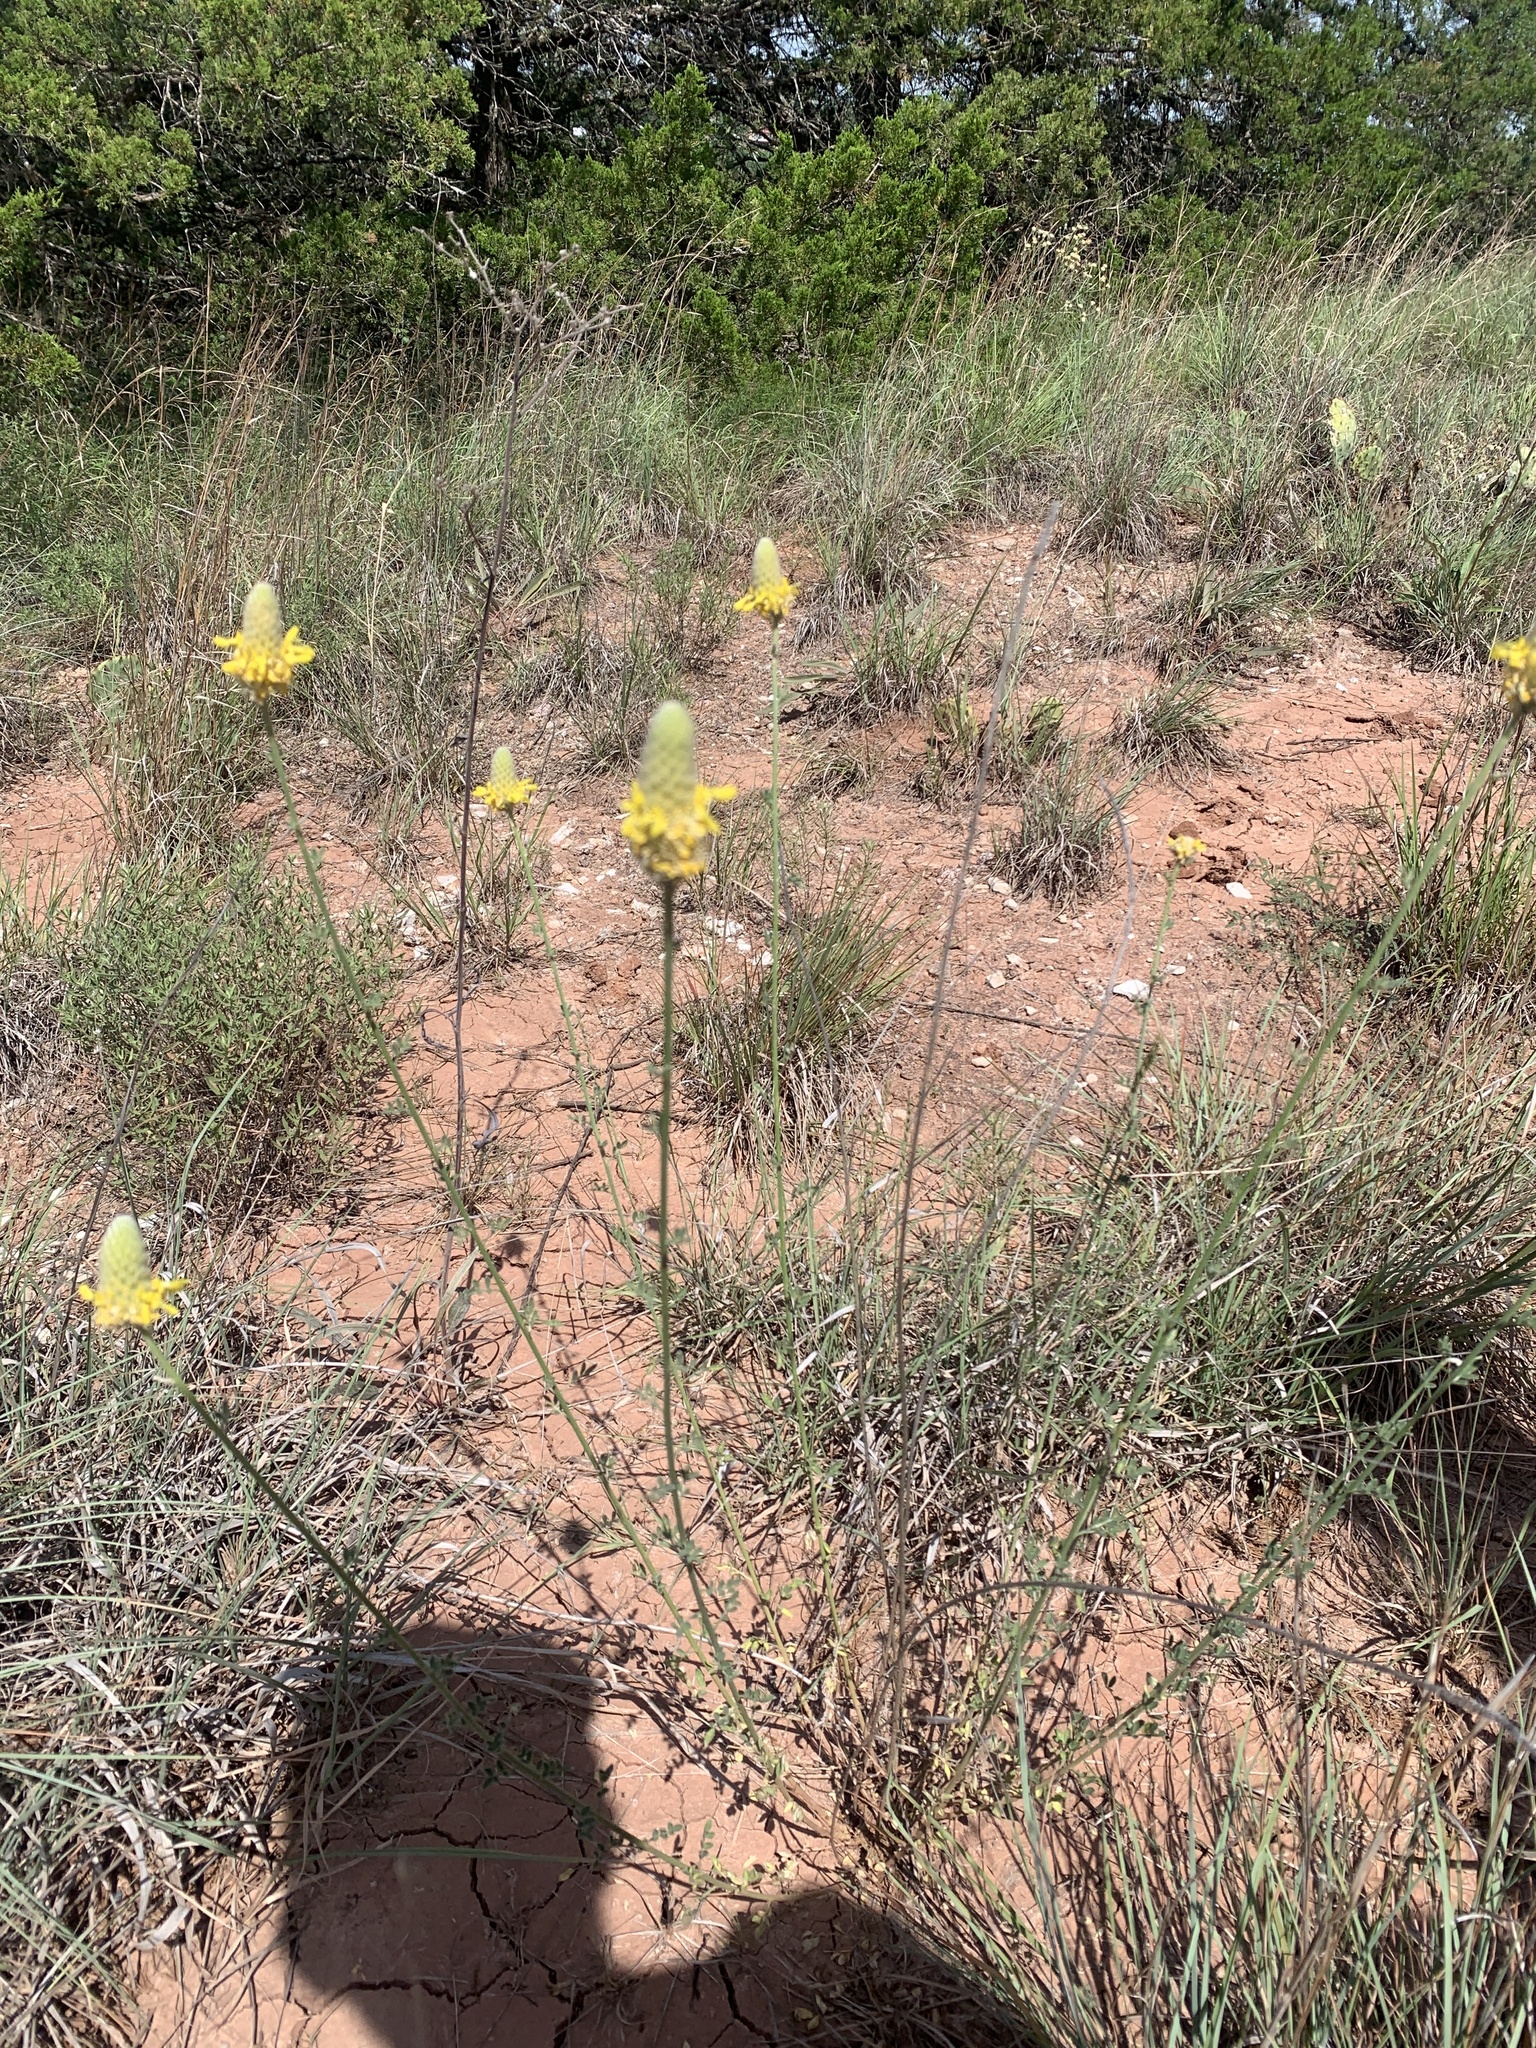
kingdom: Plantae
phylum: Tracheophyta
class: Magnoliopsida
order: Fabales
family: Fabaceae
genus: Dalea
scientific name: Dalea aurea
